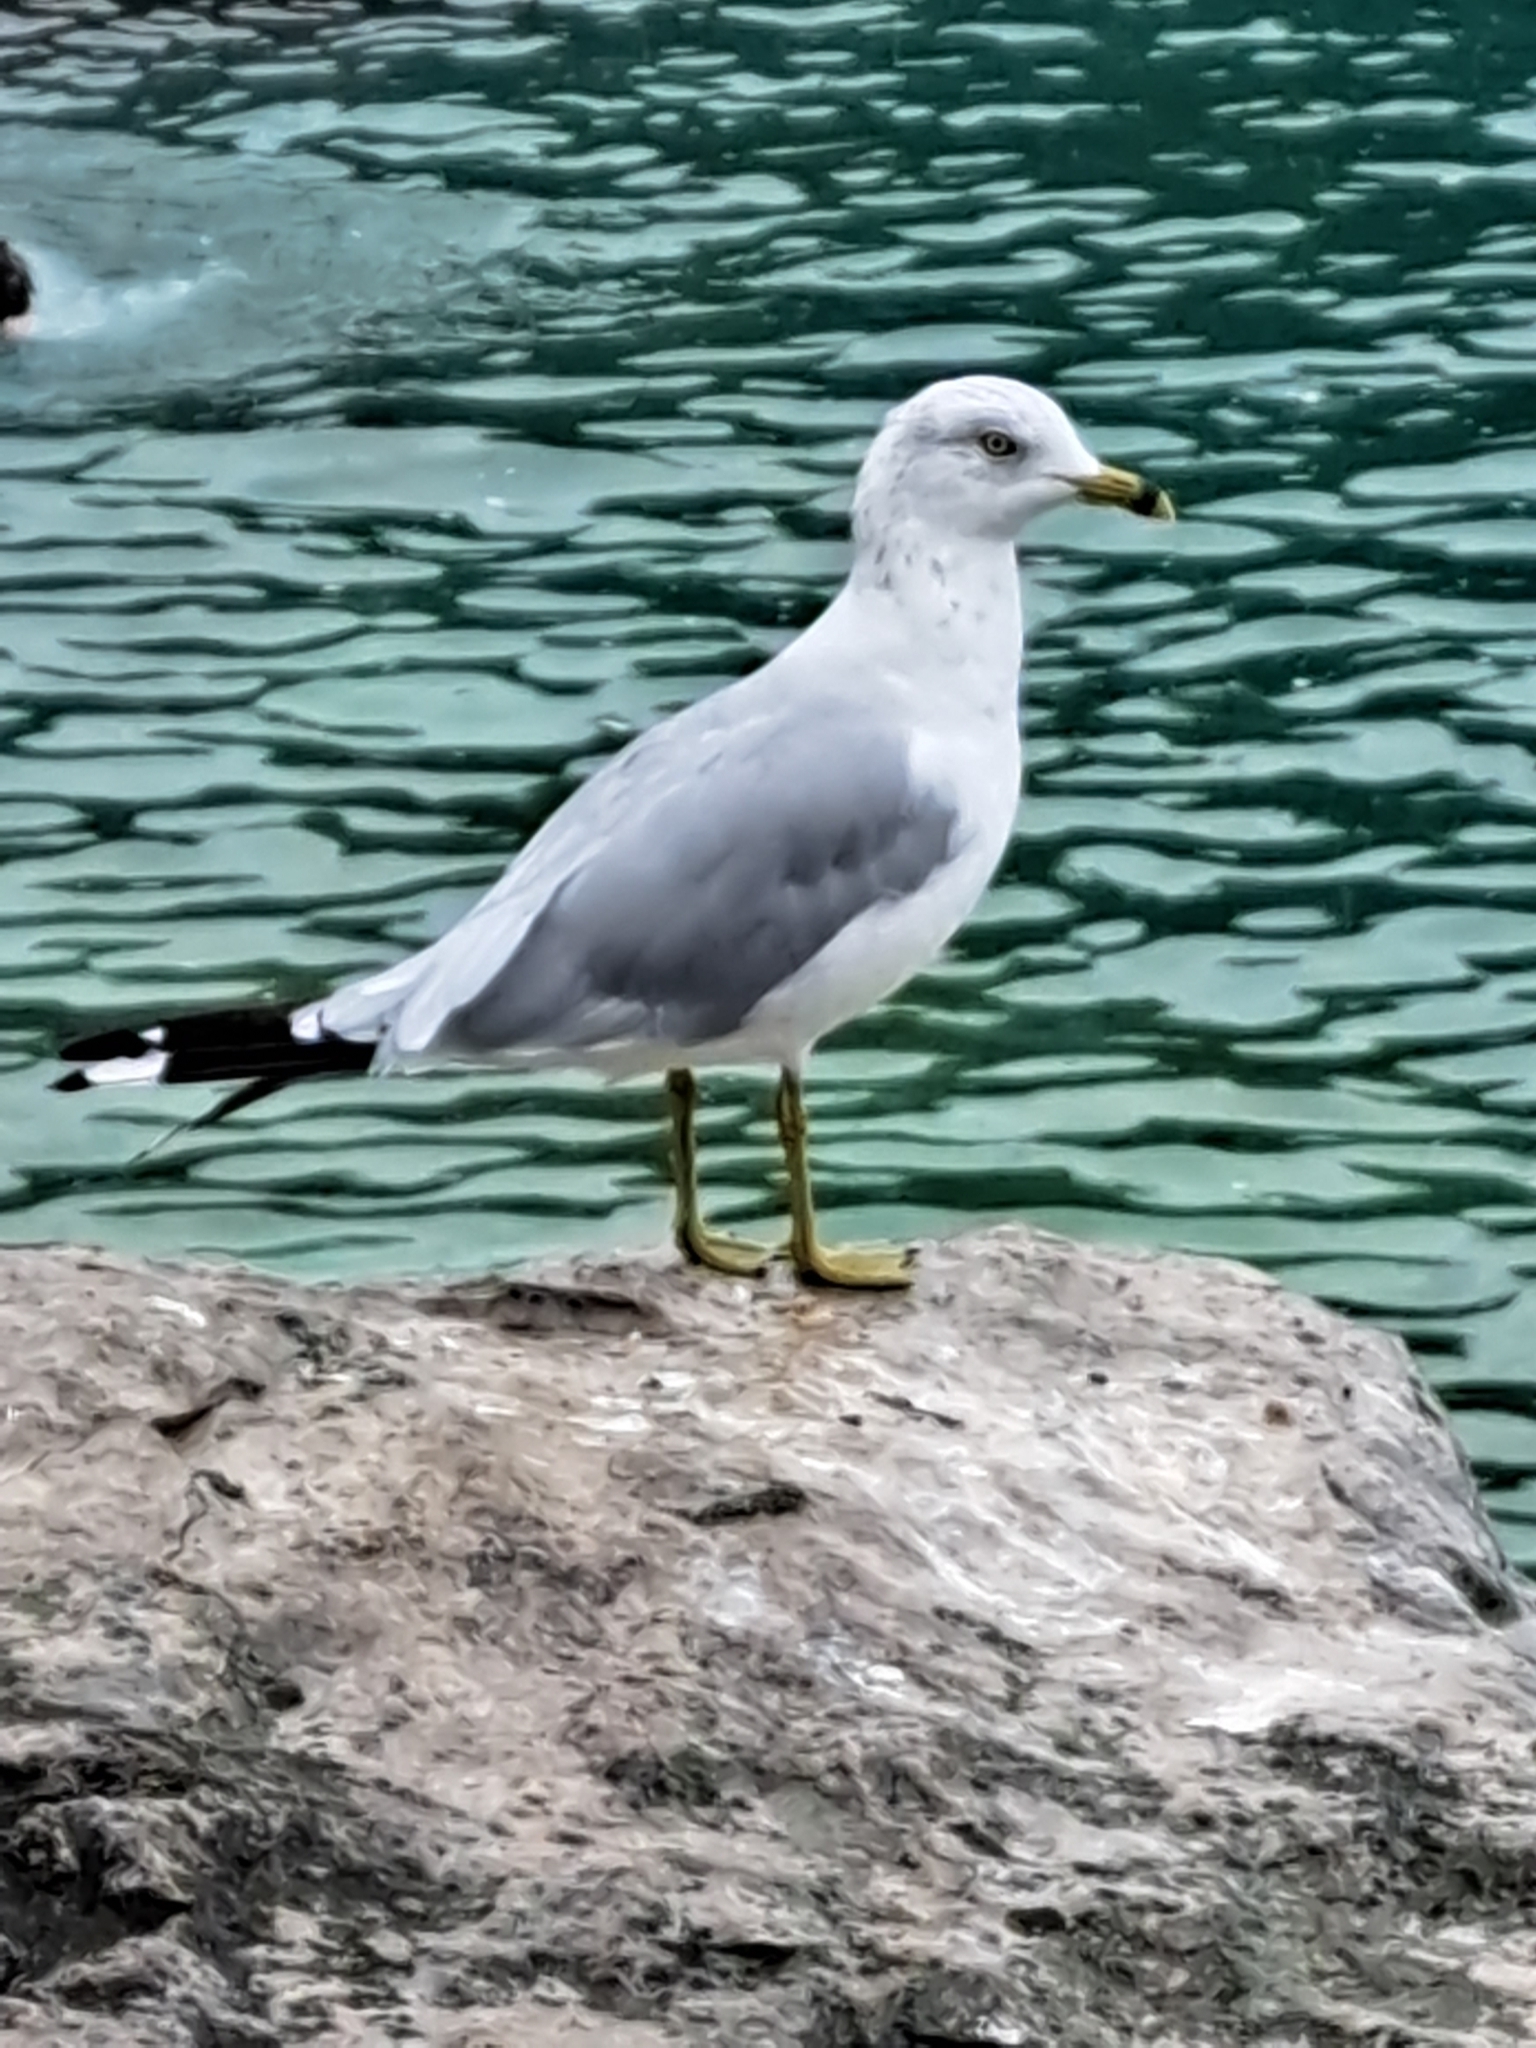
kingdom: Animalia
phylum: Chordata
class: Aves
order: Charadriiformes
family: Laridae
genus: Larus
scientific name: Larus delawarensis
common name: Ring-billed gull
